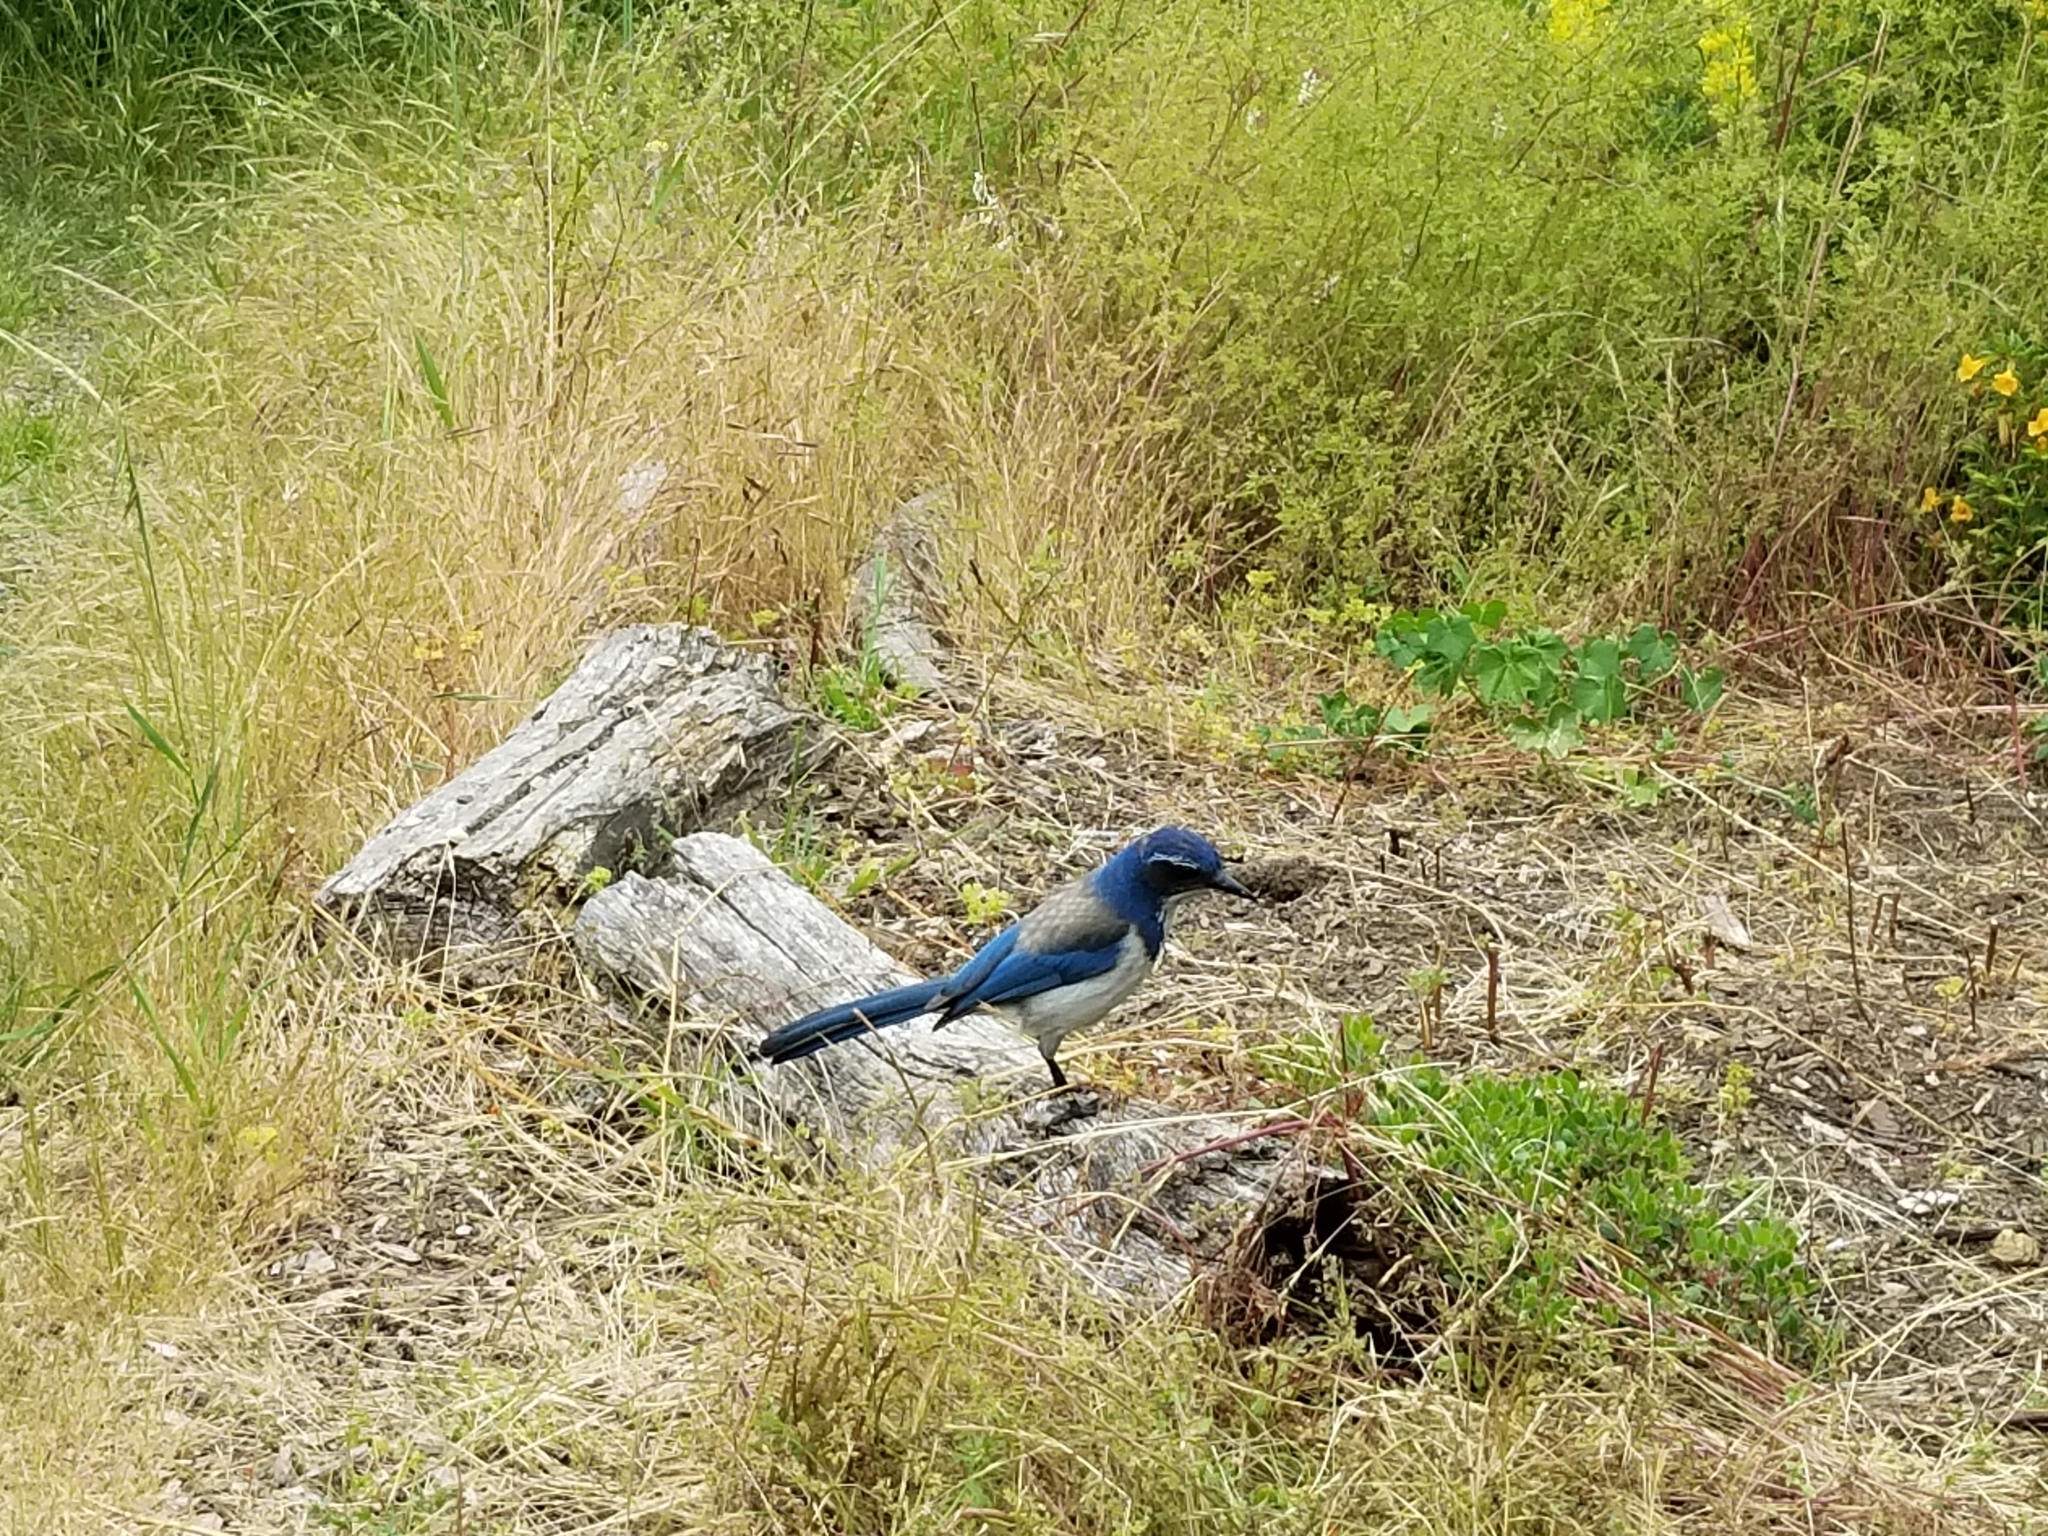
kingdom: Animalia
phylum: Chordata
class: Aves
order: Passeriformes
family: Corvidae
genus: Aphelocoma
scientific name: Aphelocoma californica
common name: California scrub-jay
